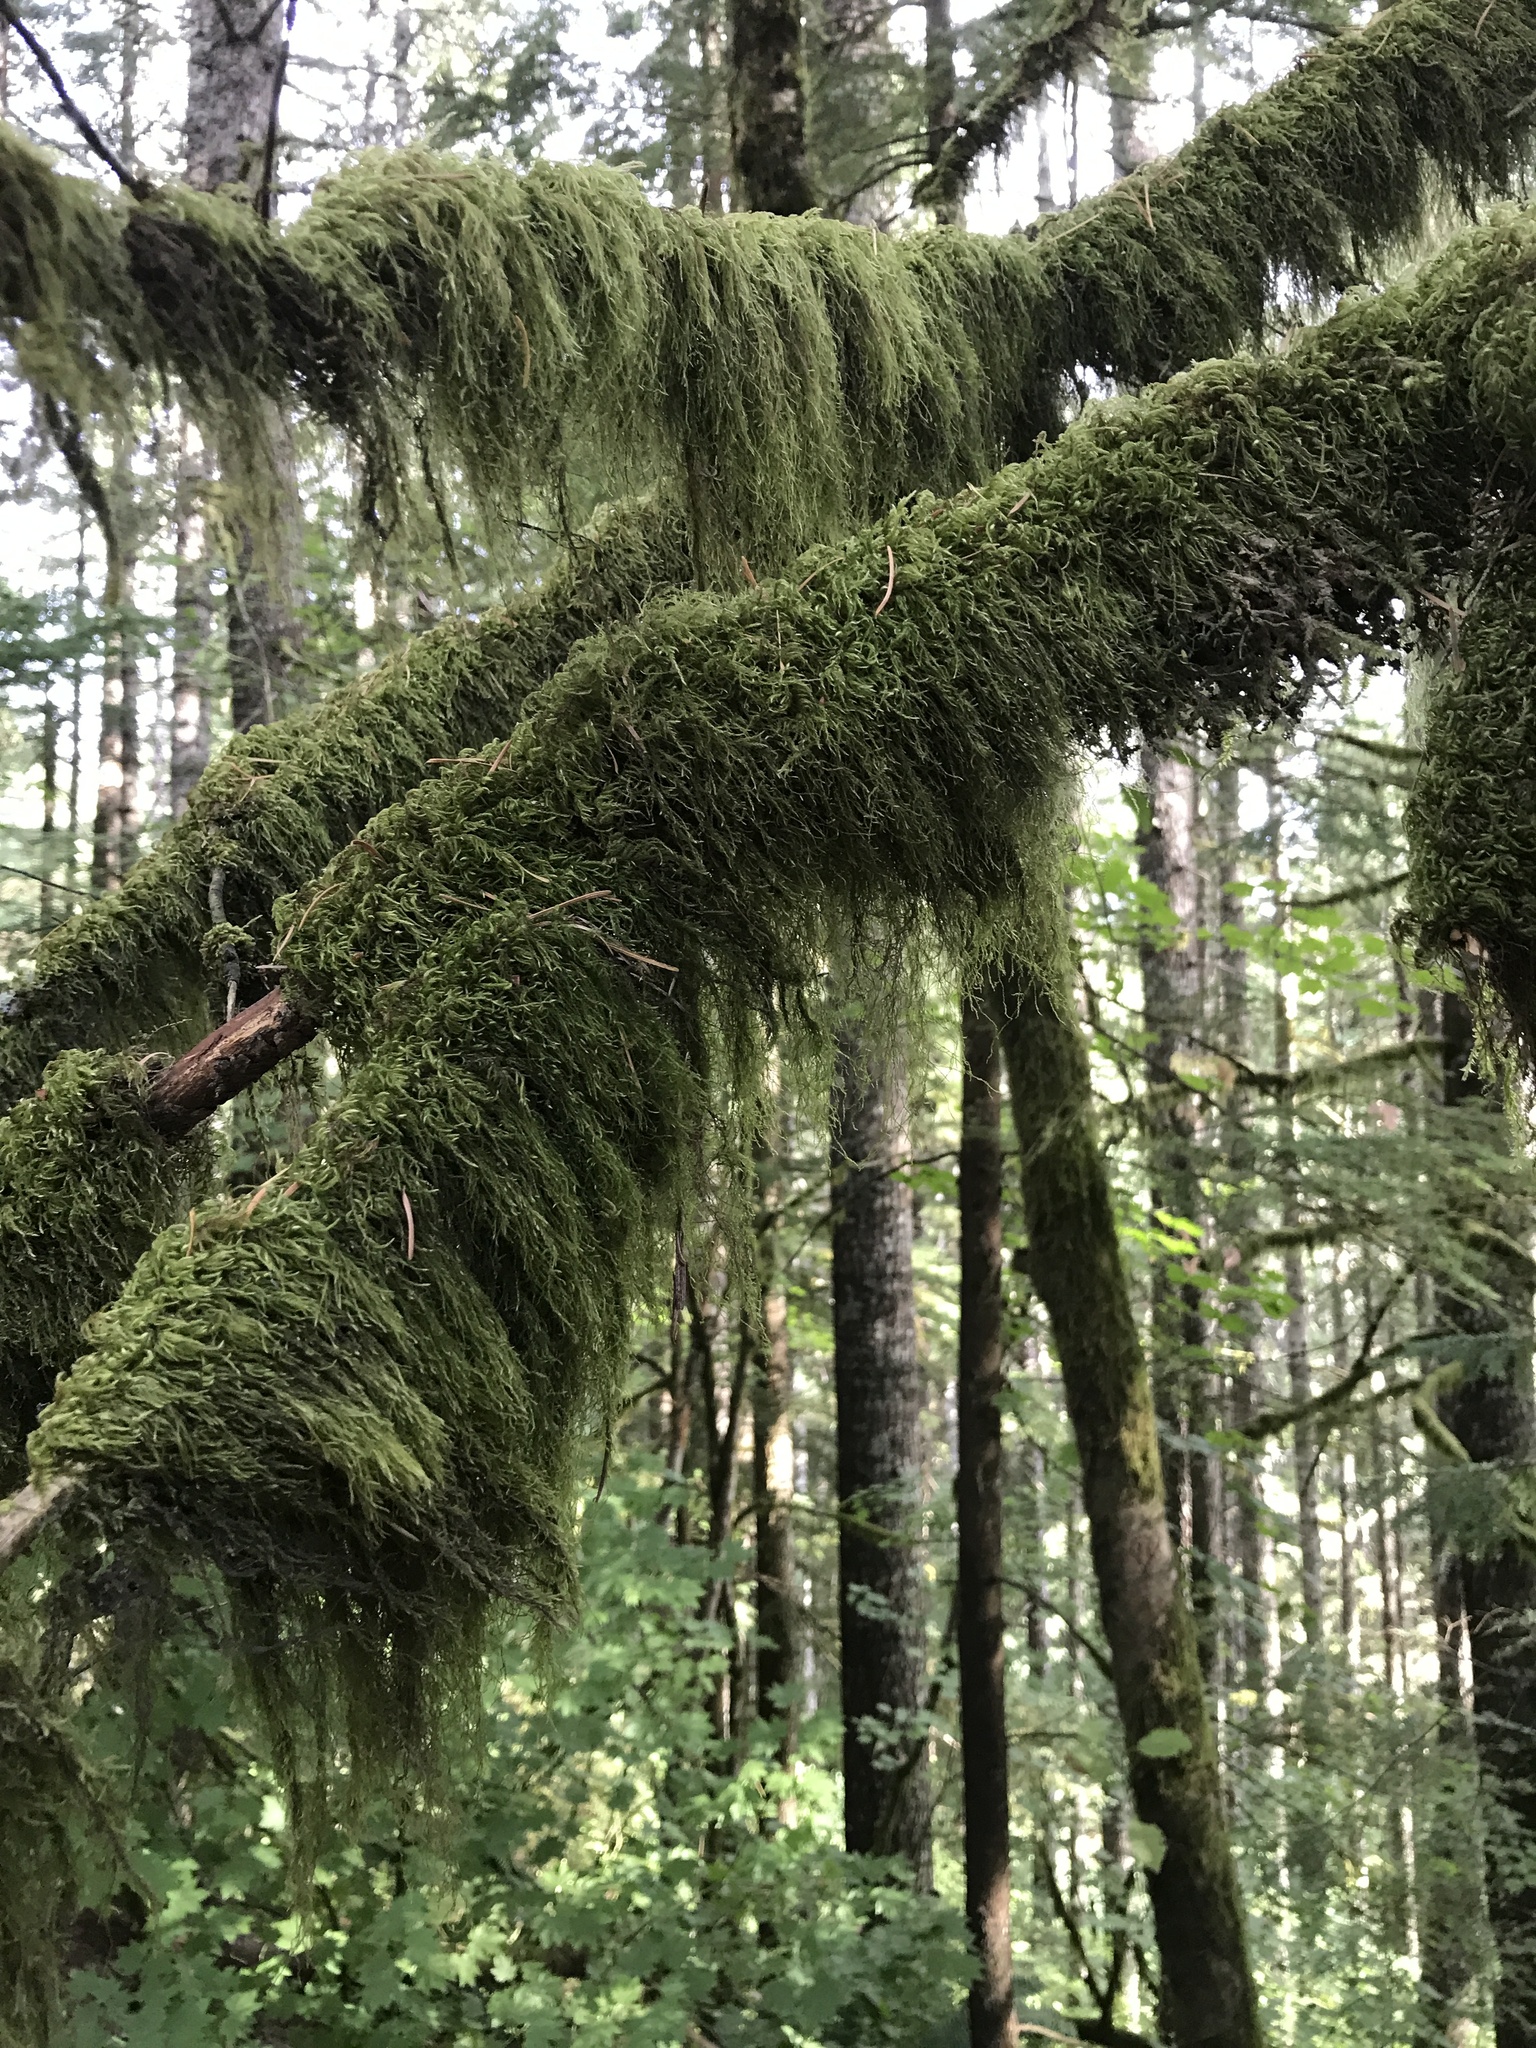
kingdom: Plantae
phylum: Bryophyta
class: Bryopsida
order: Hypnales
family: Lembophyllaceae
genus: Pseudisothecium
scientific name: Pseudisothecium stoloniferum
